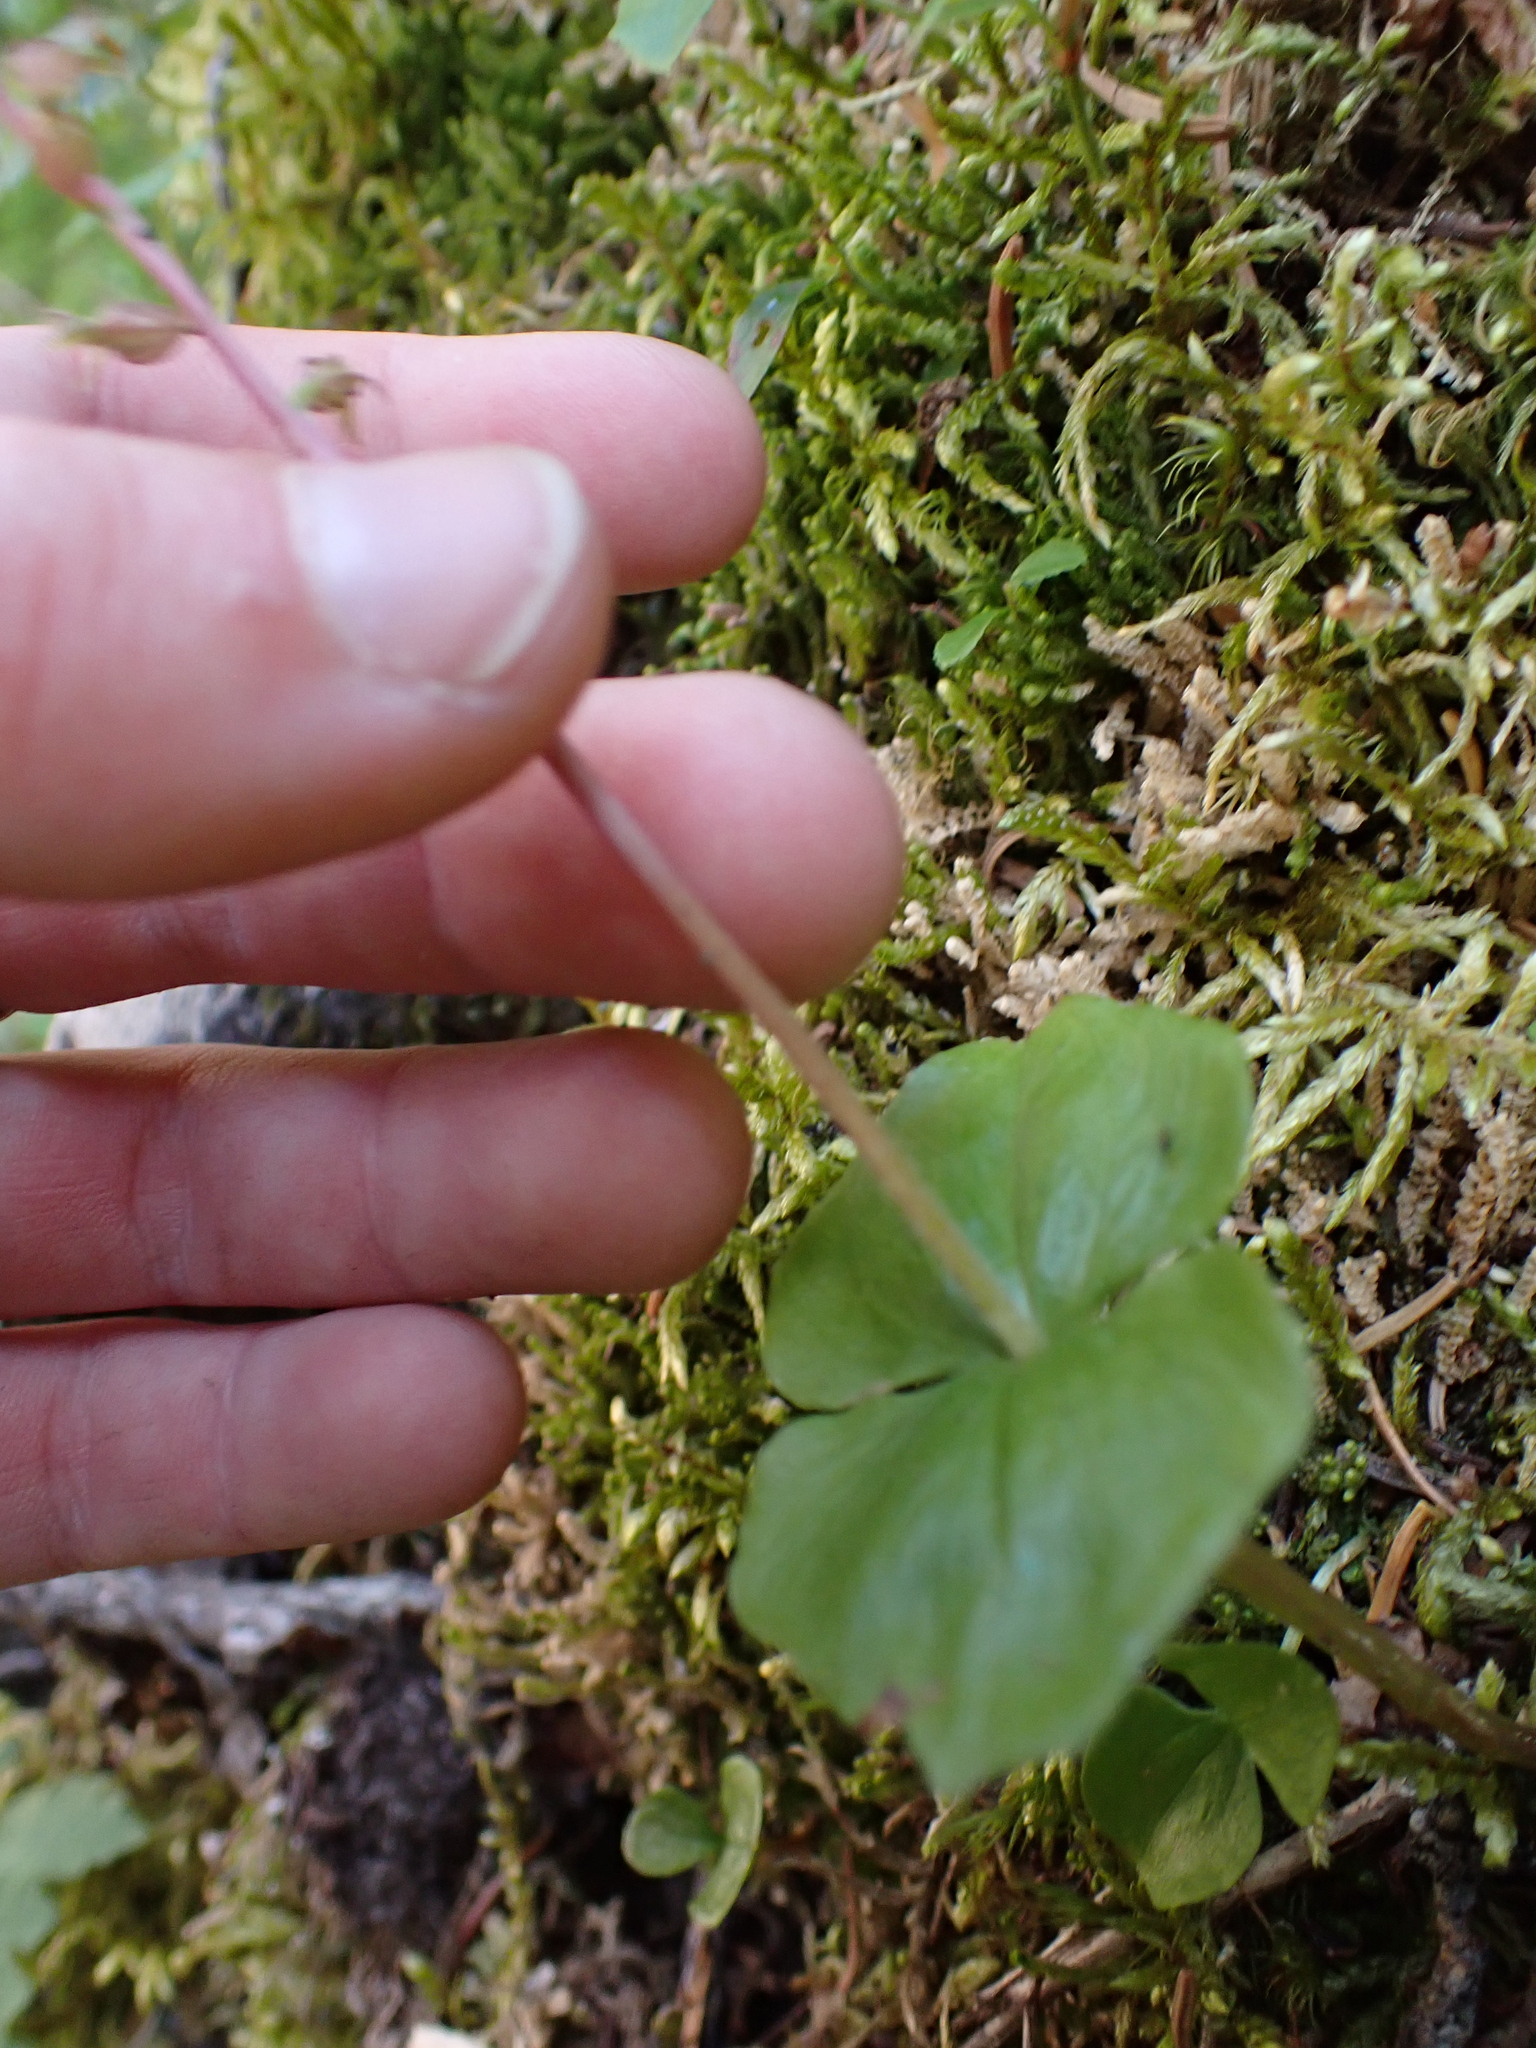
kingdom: Plantae
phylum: Tracheophyta
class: Liliopsida
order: Asparagales
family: Orchidaceae
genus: Neottia
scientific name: Neottia cordata
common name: Lesser twayblade
